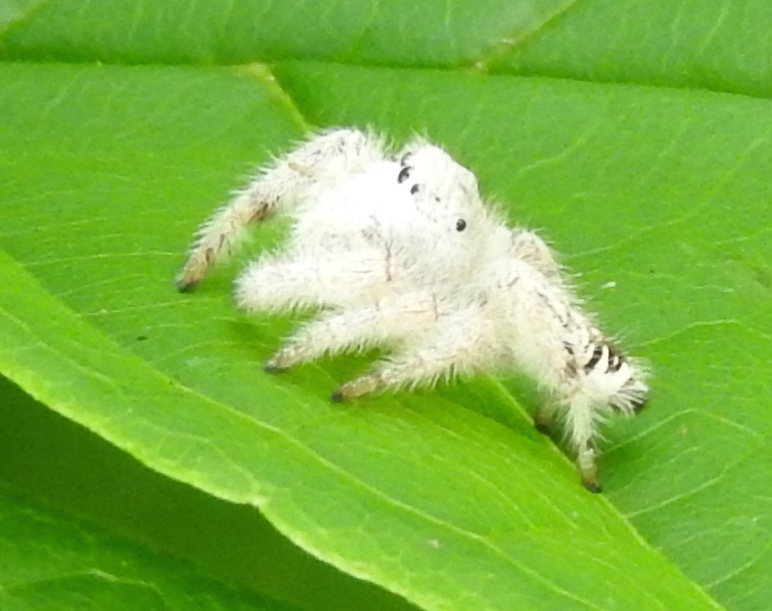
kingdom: Animalia
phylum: Arthropoda
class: Arachnida
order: Araneae
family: Salticidae
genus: Paraphidippus
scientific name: Paraphidippus fartilis
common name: Jumping spiders
